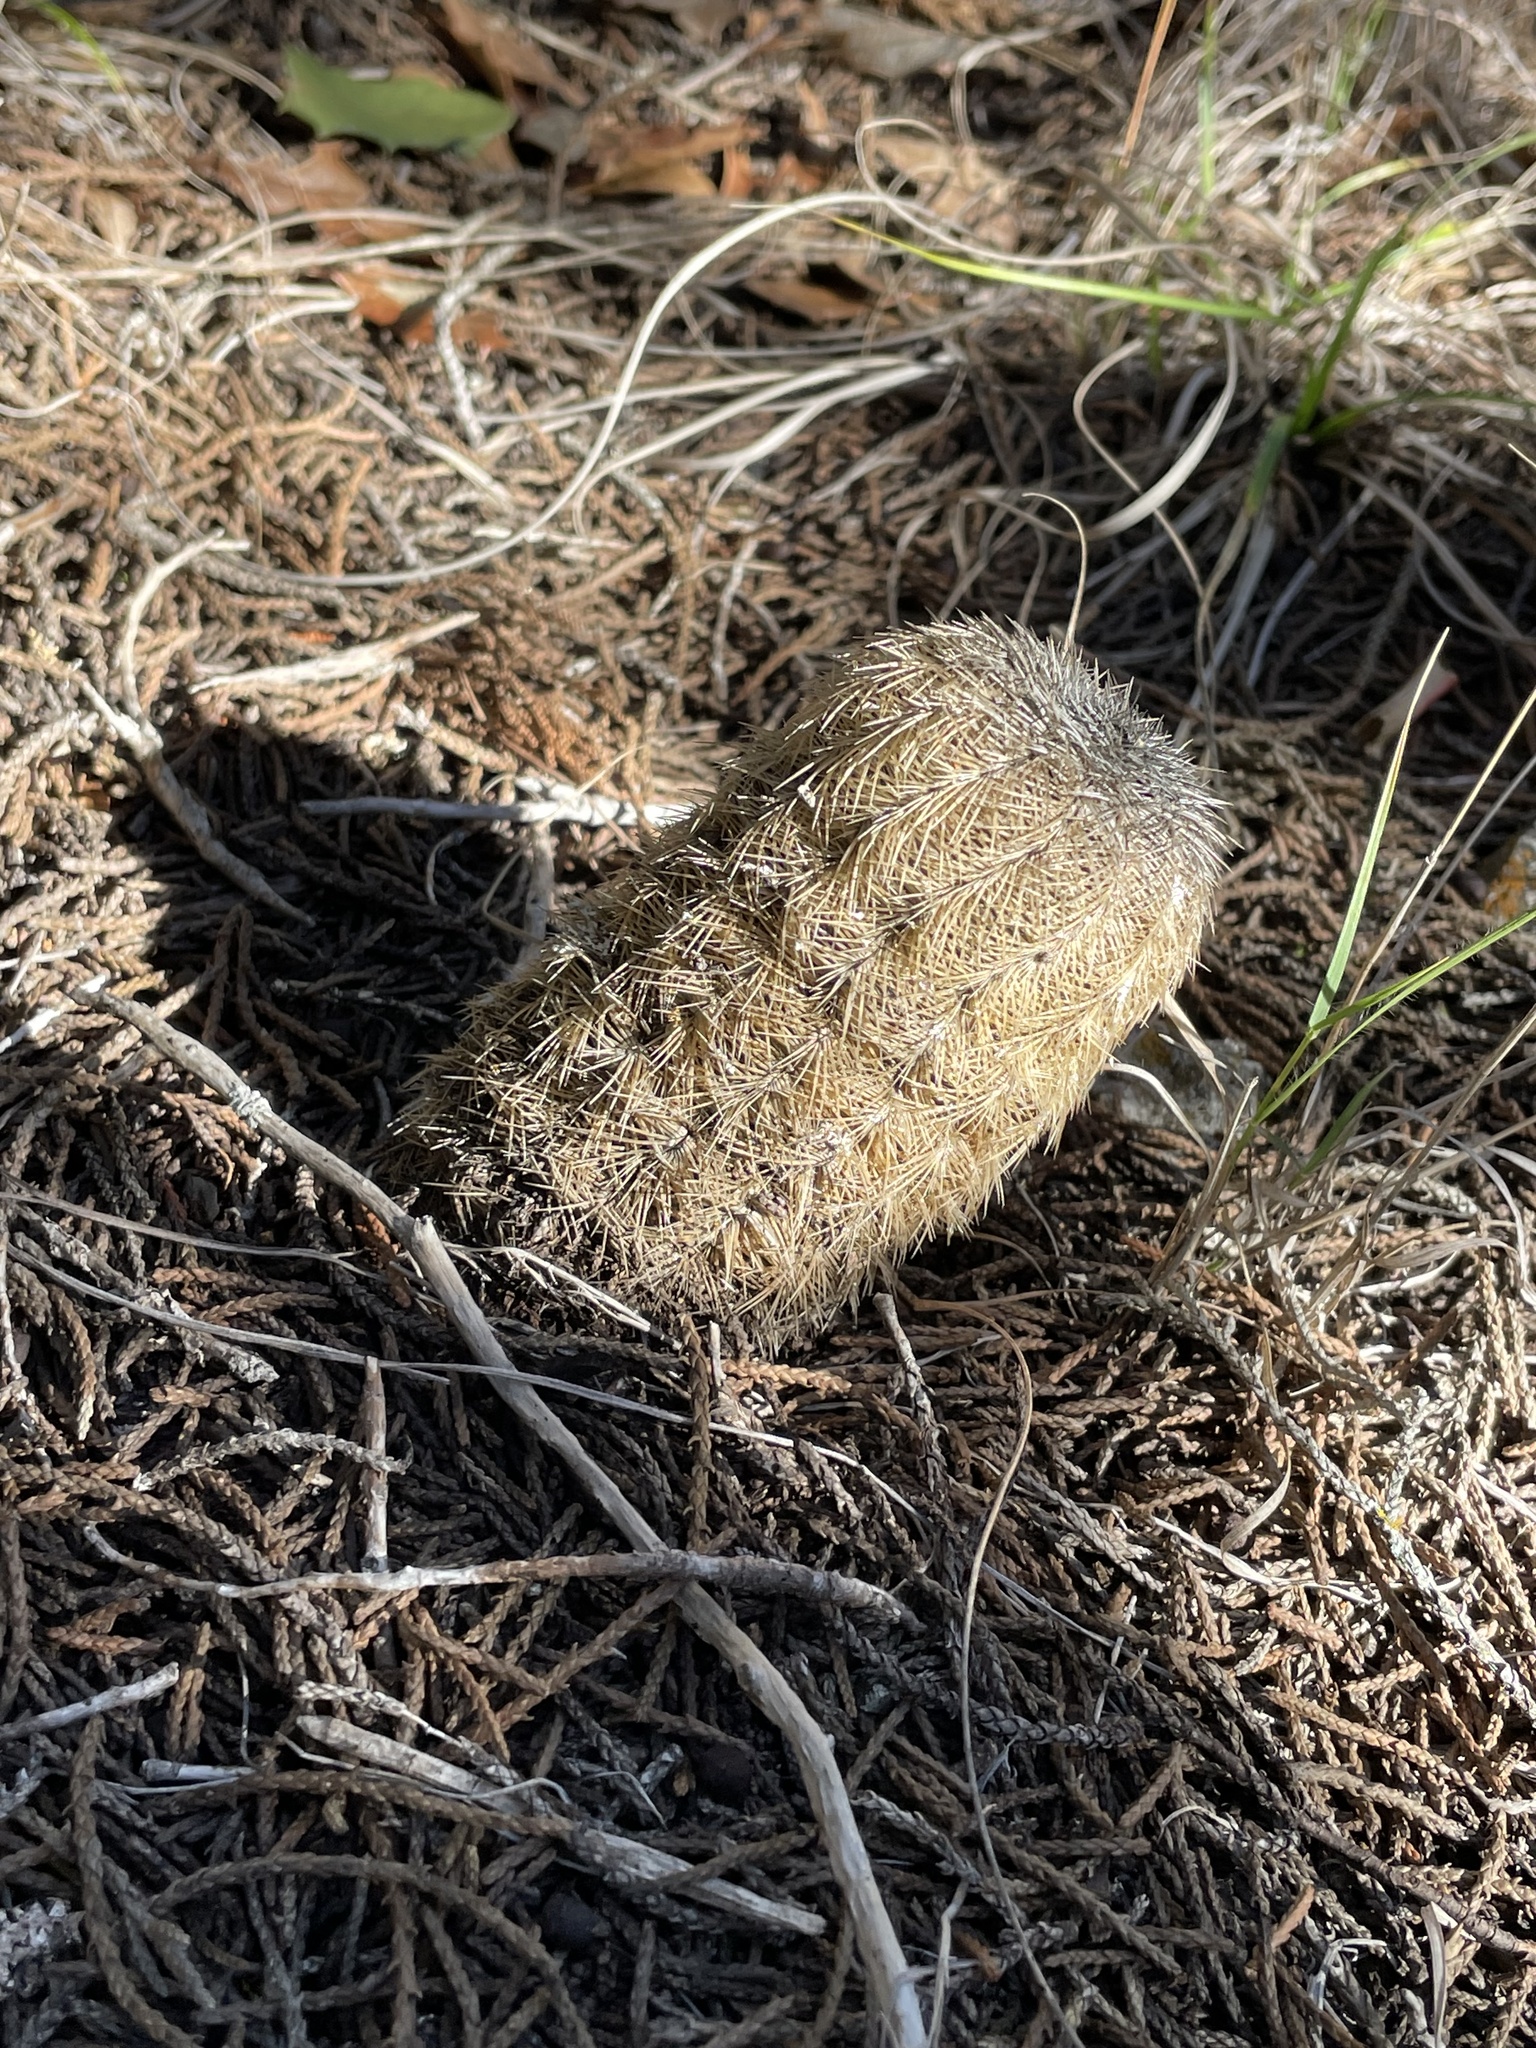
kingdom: Plantae
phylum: Tracheophyta
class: Magnoliopsida
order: Caryophyllales
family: Cactaceae
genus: Echinocereus
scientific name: Echinocereus reichenbachii
